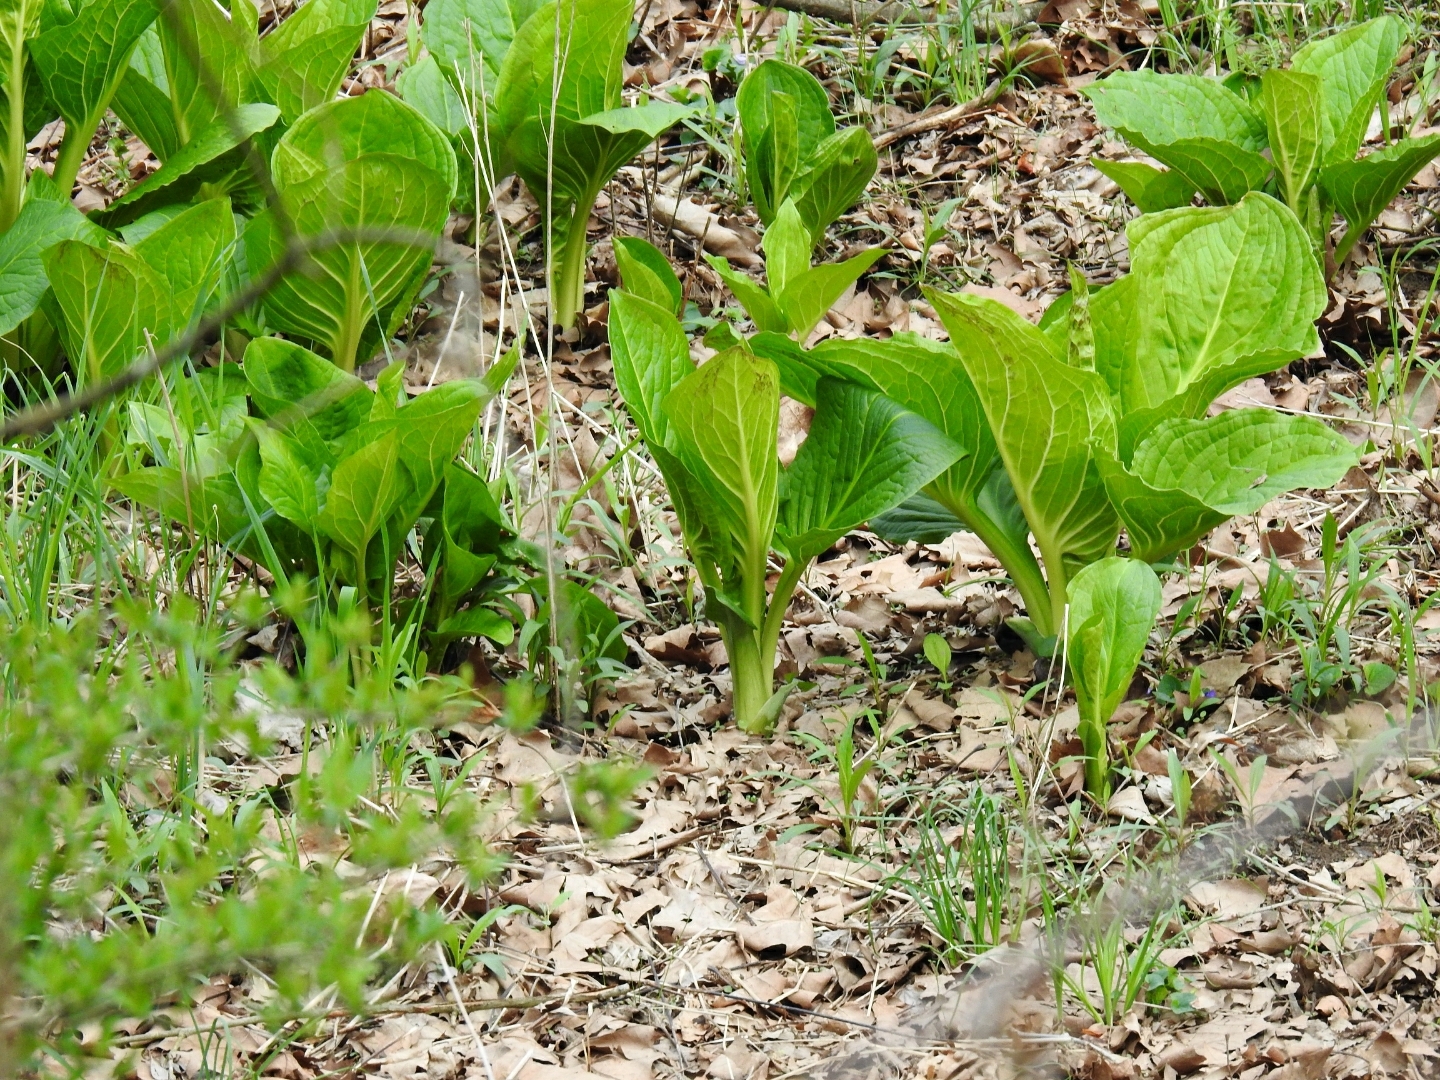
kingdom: Plantae
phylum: Tracheophyta
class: Liliopsida
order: Alismatales
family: Araceae
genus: Symplocarpus
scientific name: Symplocarpus foetidus
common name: Eastern skunk cabbage
